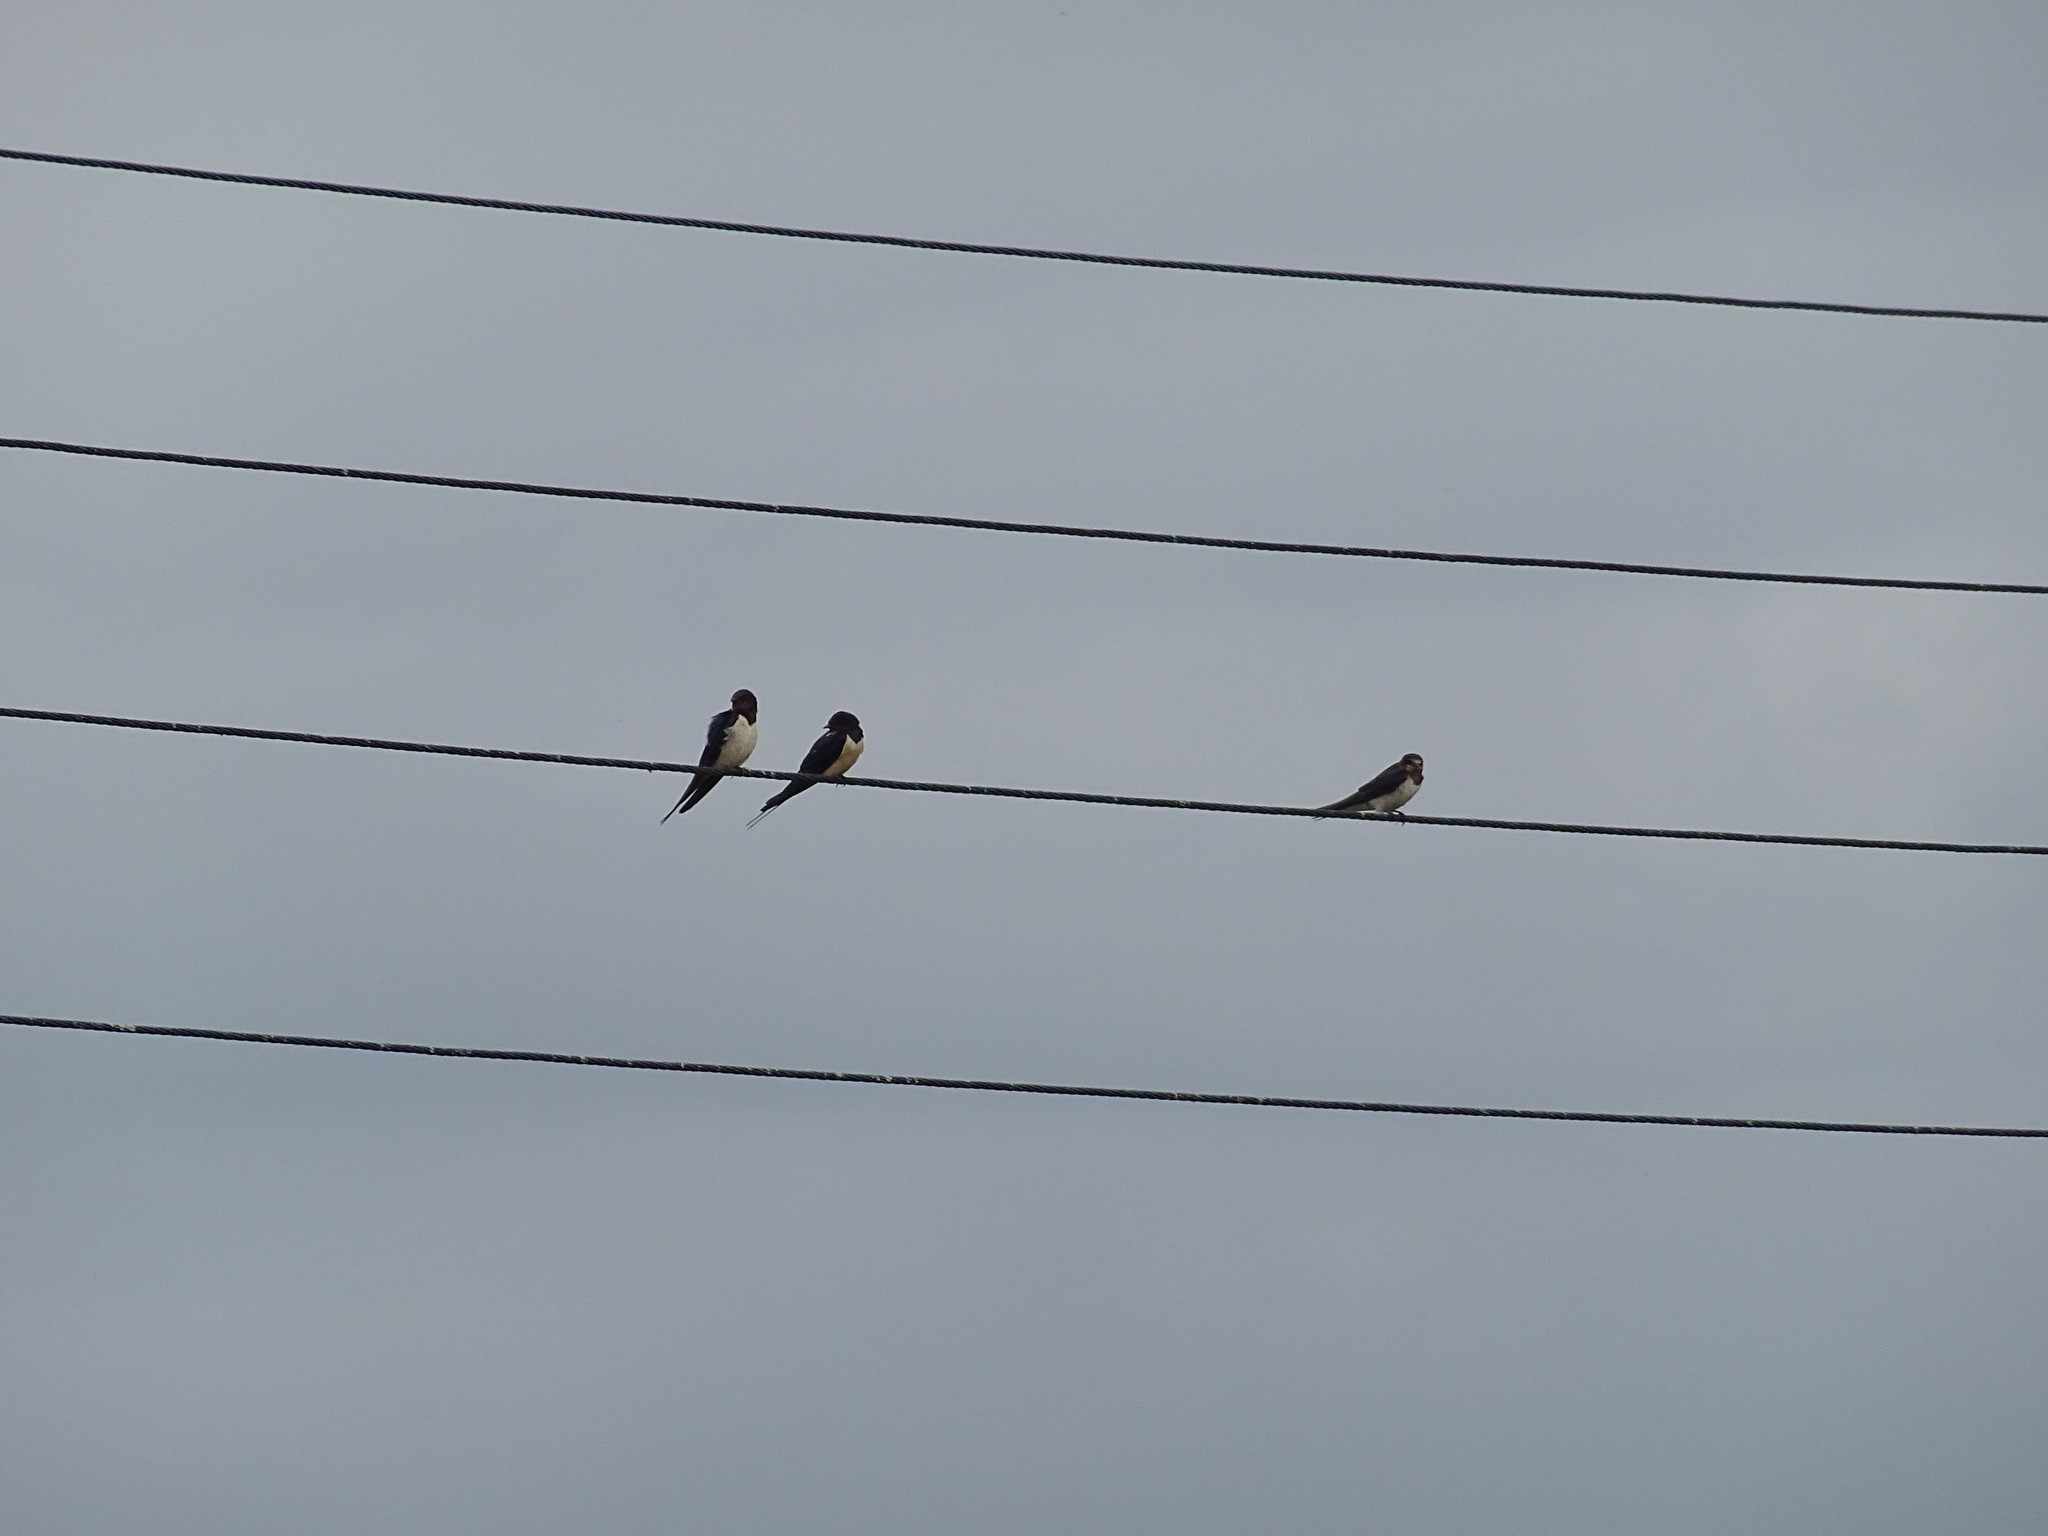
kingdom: Animalia
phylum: Chordata
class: Aves
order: Passeriformes
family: Hirundinidae
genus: Hirundo
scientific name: Hirundo rustica
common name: Barn swallow
